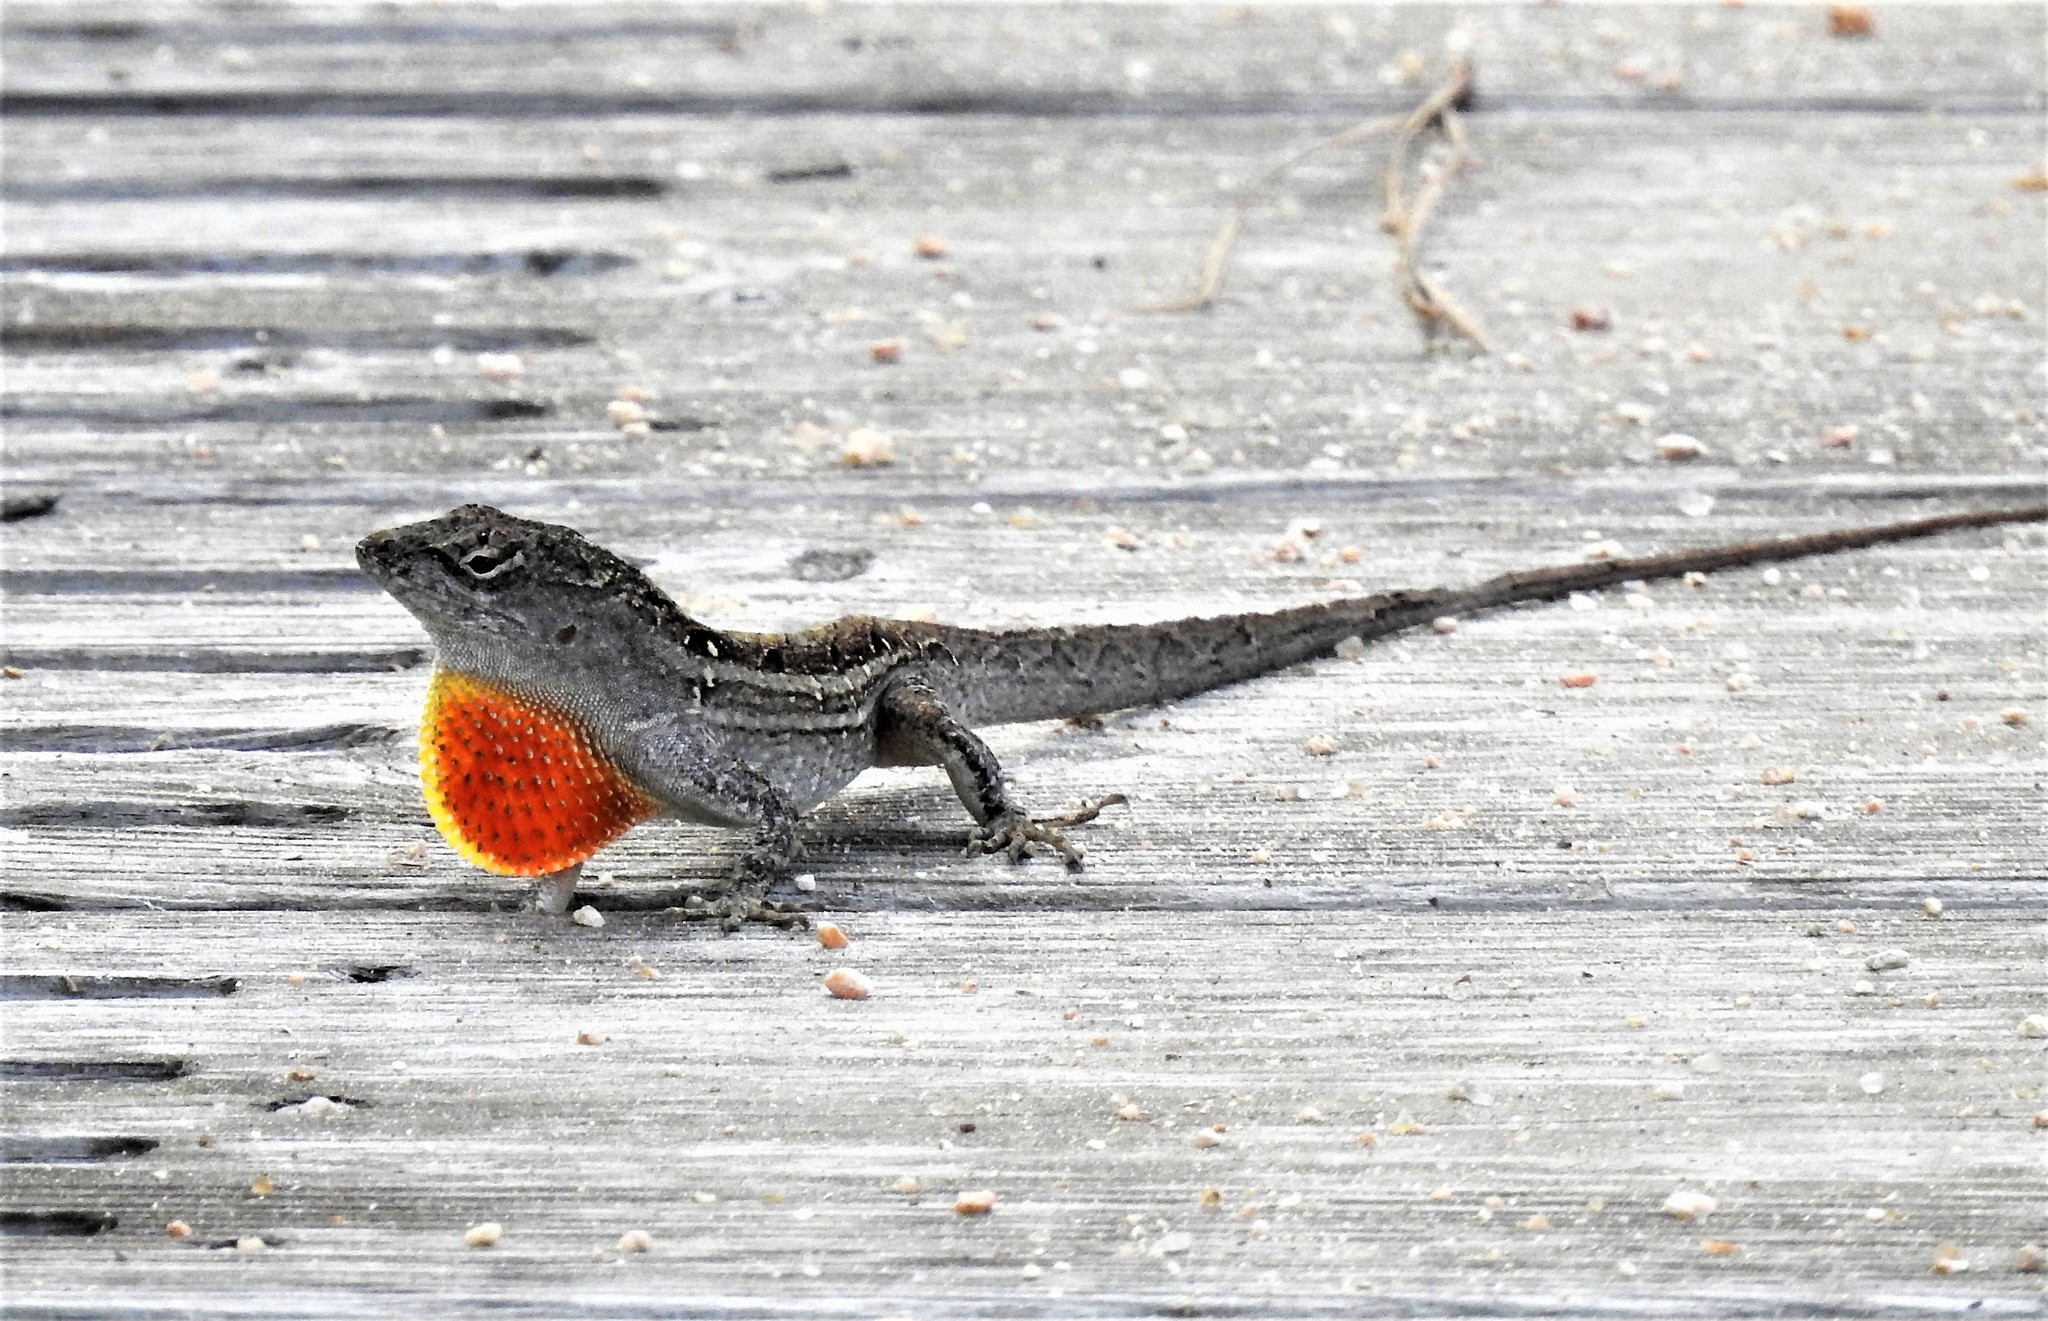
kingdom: Animalia
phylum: Chordata
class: Squamata
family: Dactyloidae
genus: Anolis
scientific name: Anolis sagrei
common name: Brown anole
